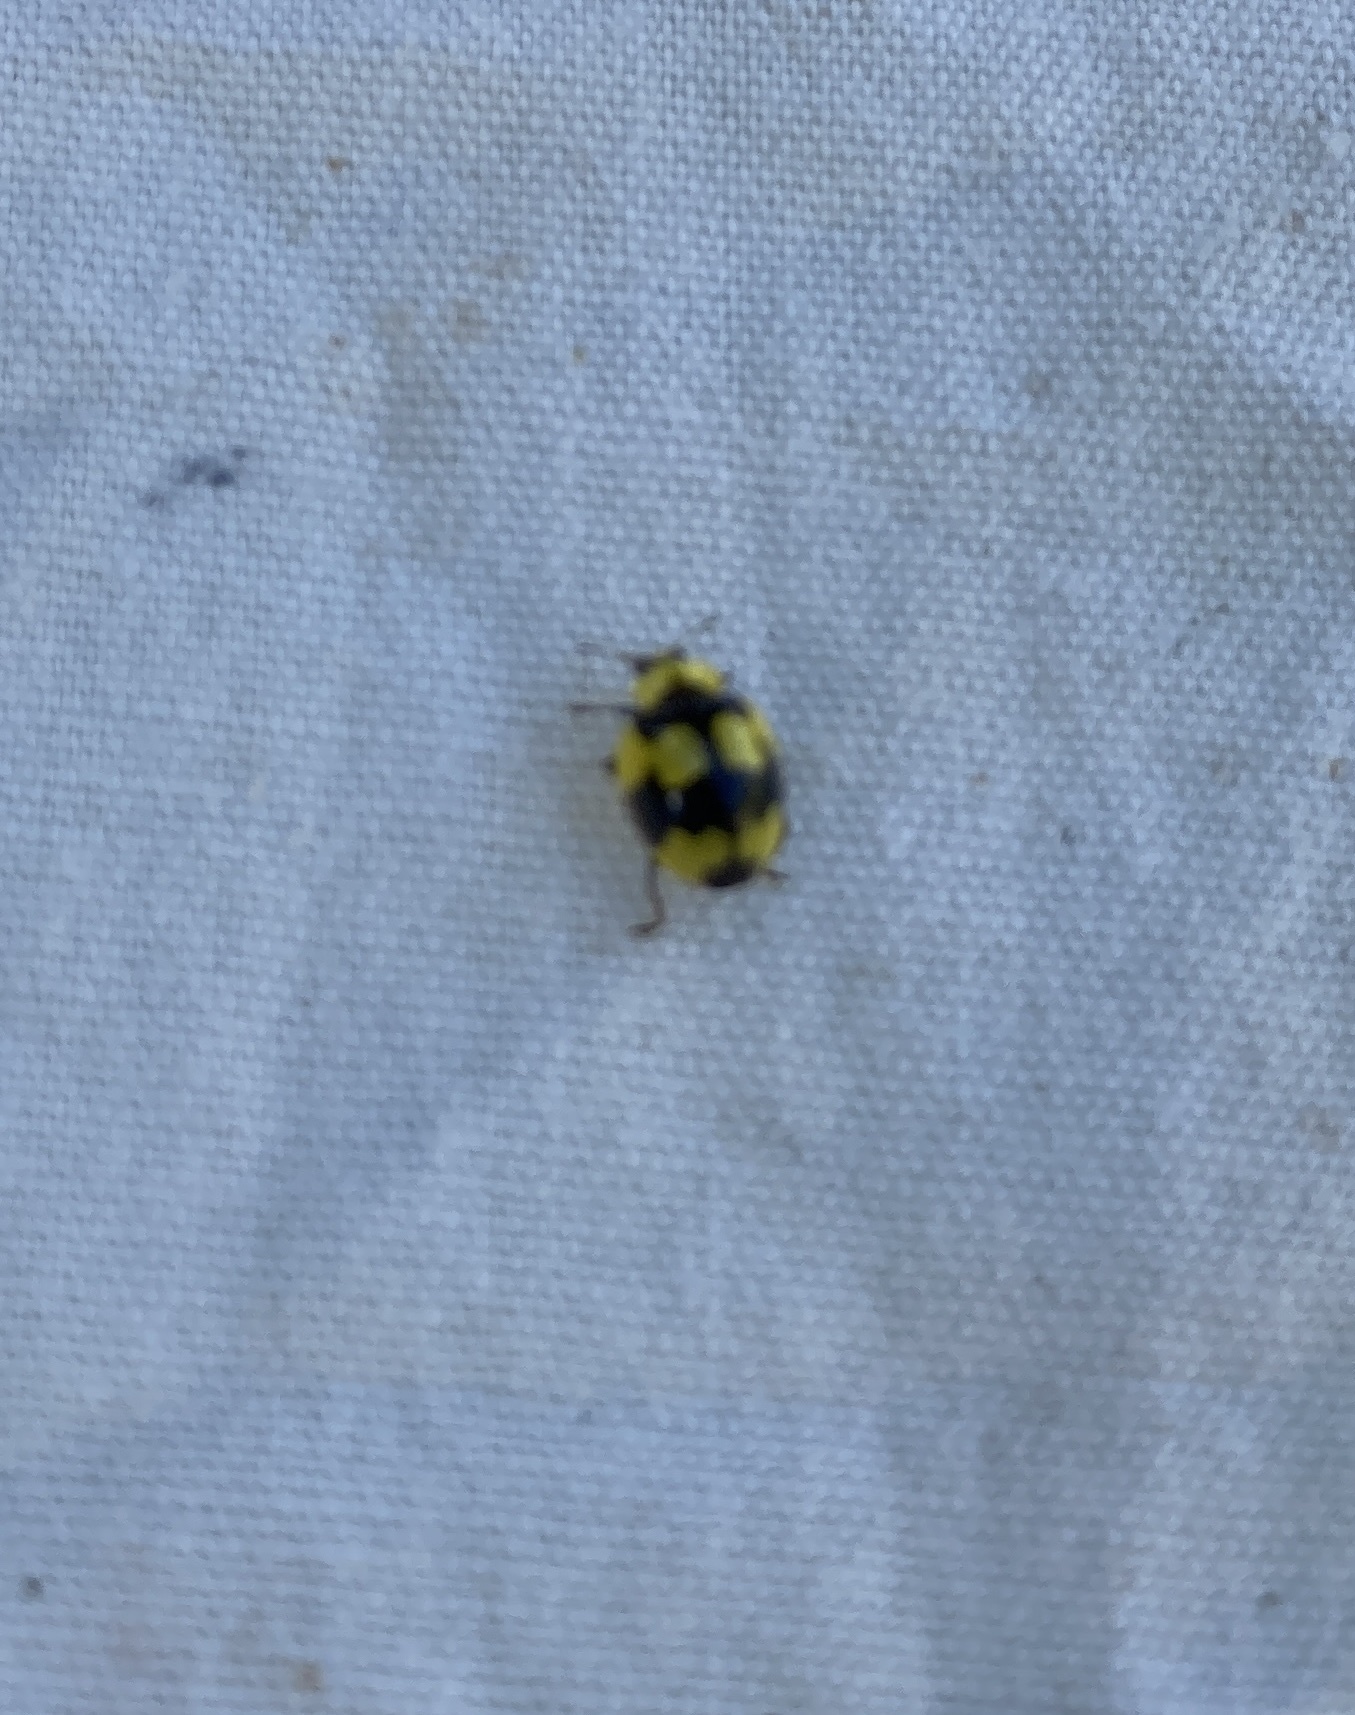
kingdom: Animalia
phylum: Arthropoda
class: Insecta
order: Coleoptera
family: Coccinellidae
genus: Illeis
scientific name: Illeis galbula
